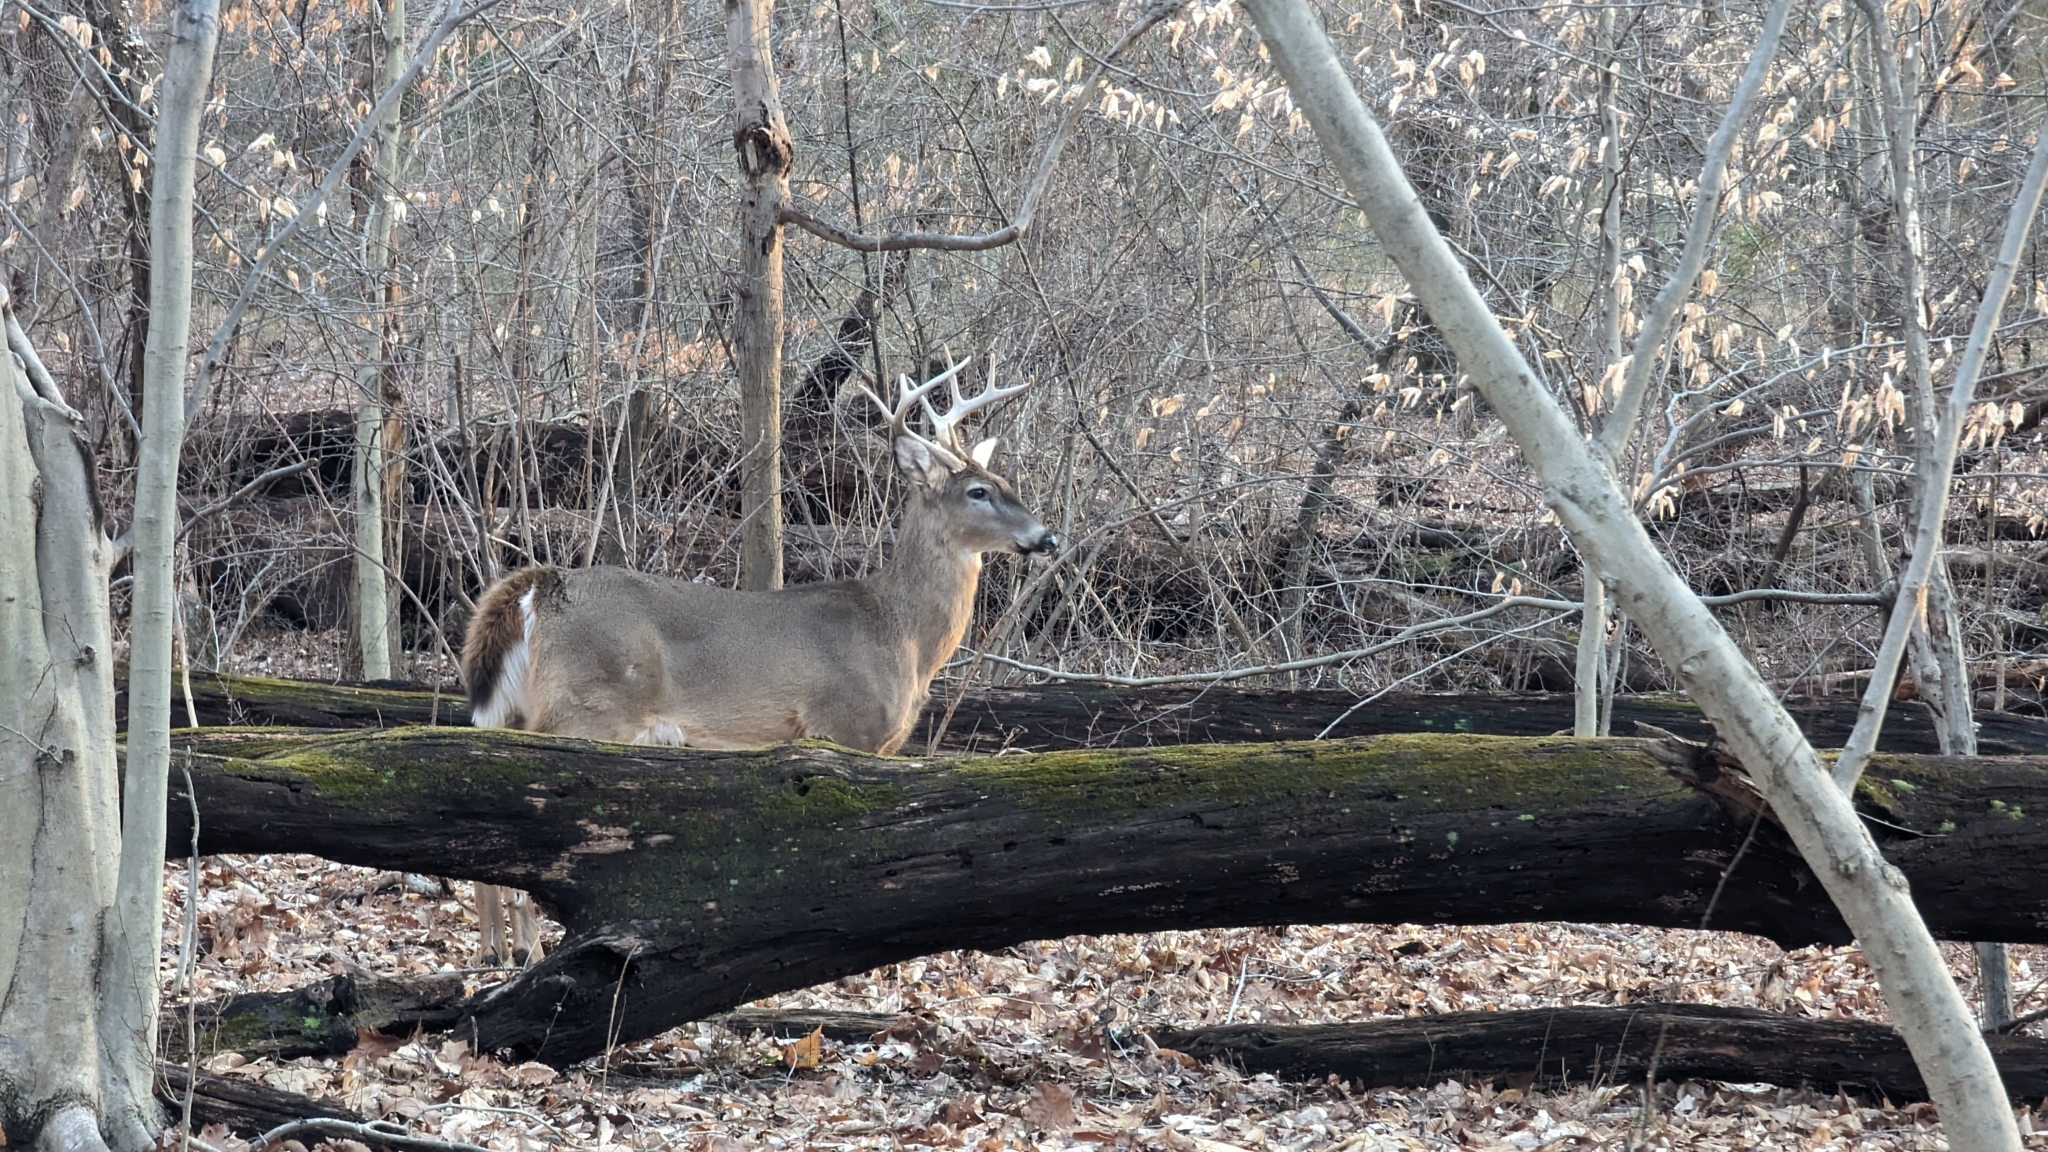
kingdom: Animalia
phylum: Chordata
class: Mammalia
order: Artiodactyla
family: Cervidae
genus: Odocoileus
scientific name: Odocoileus virginianus
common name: White-tailed deer
